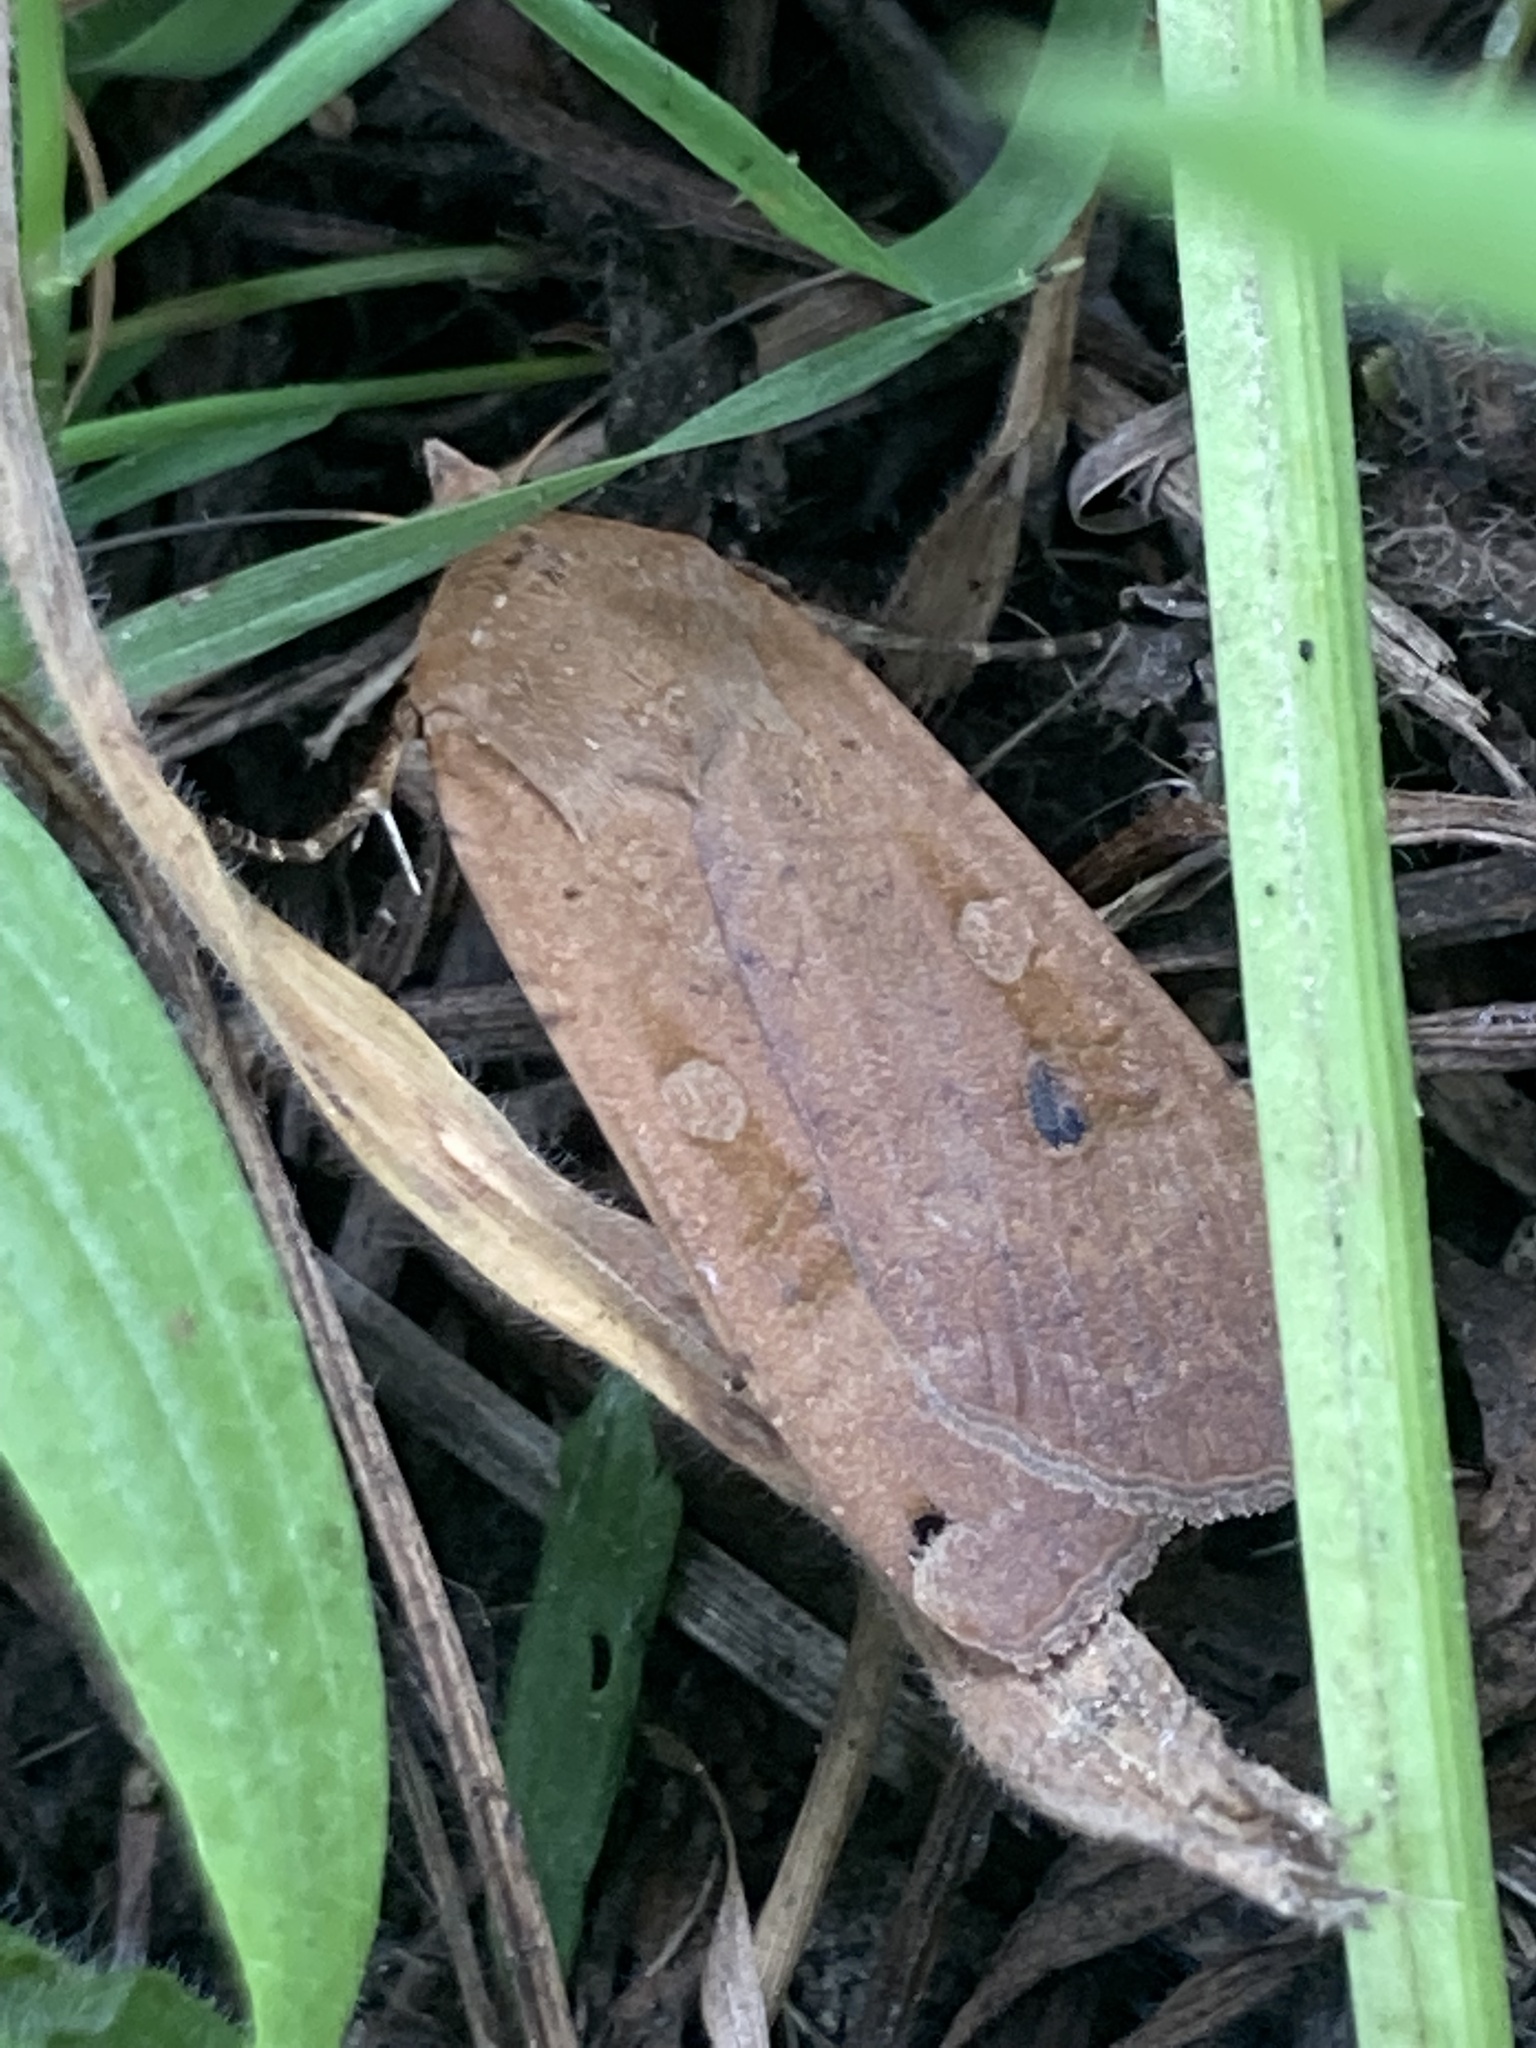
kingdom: Animalia
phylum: Arthropoda
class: Insecta
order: Lepidoptera
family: Noctuidae
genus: Noctua
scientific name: Noctua pronuba
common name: Large yellow underwing
